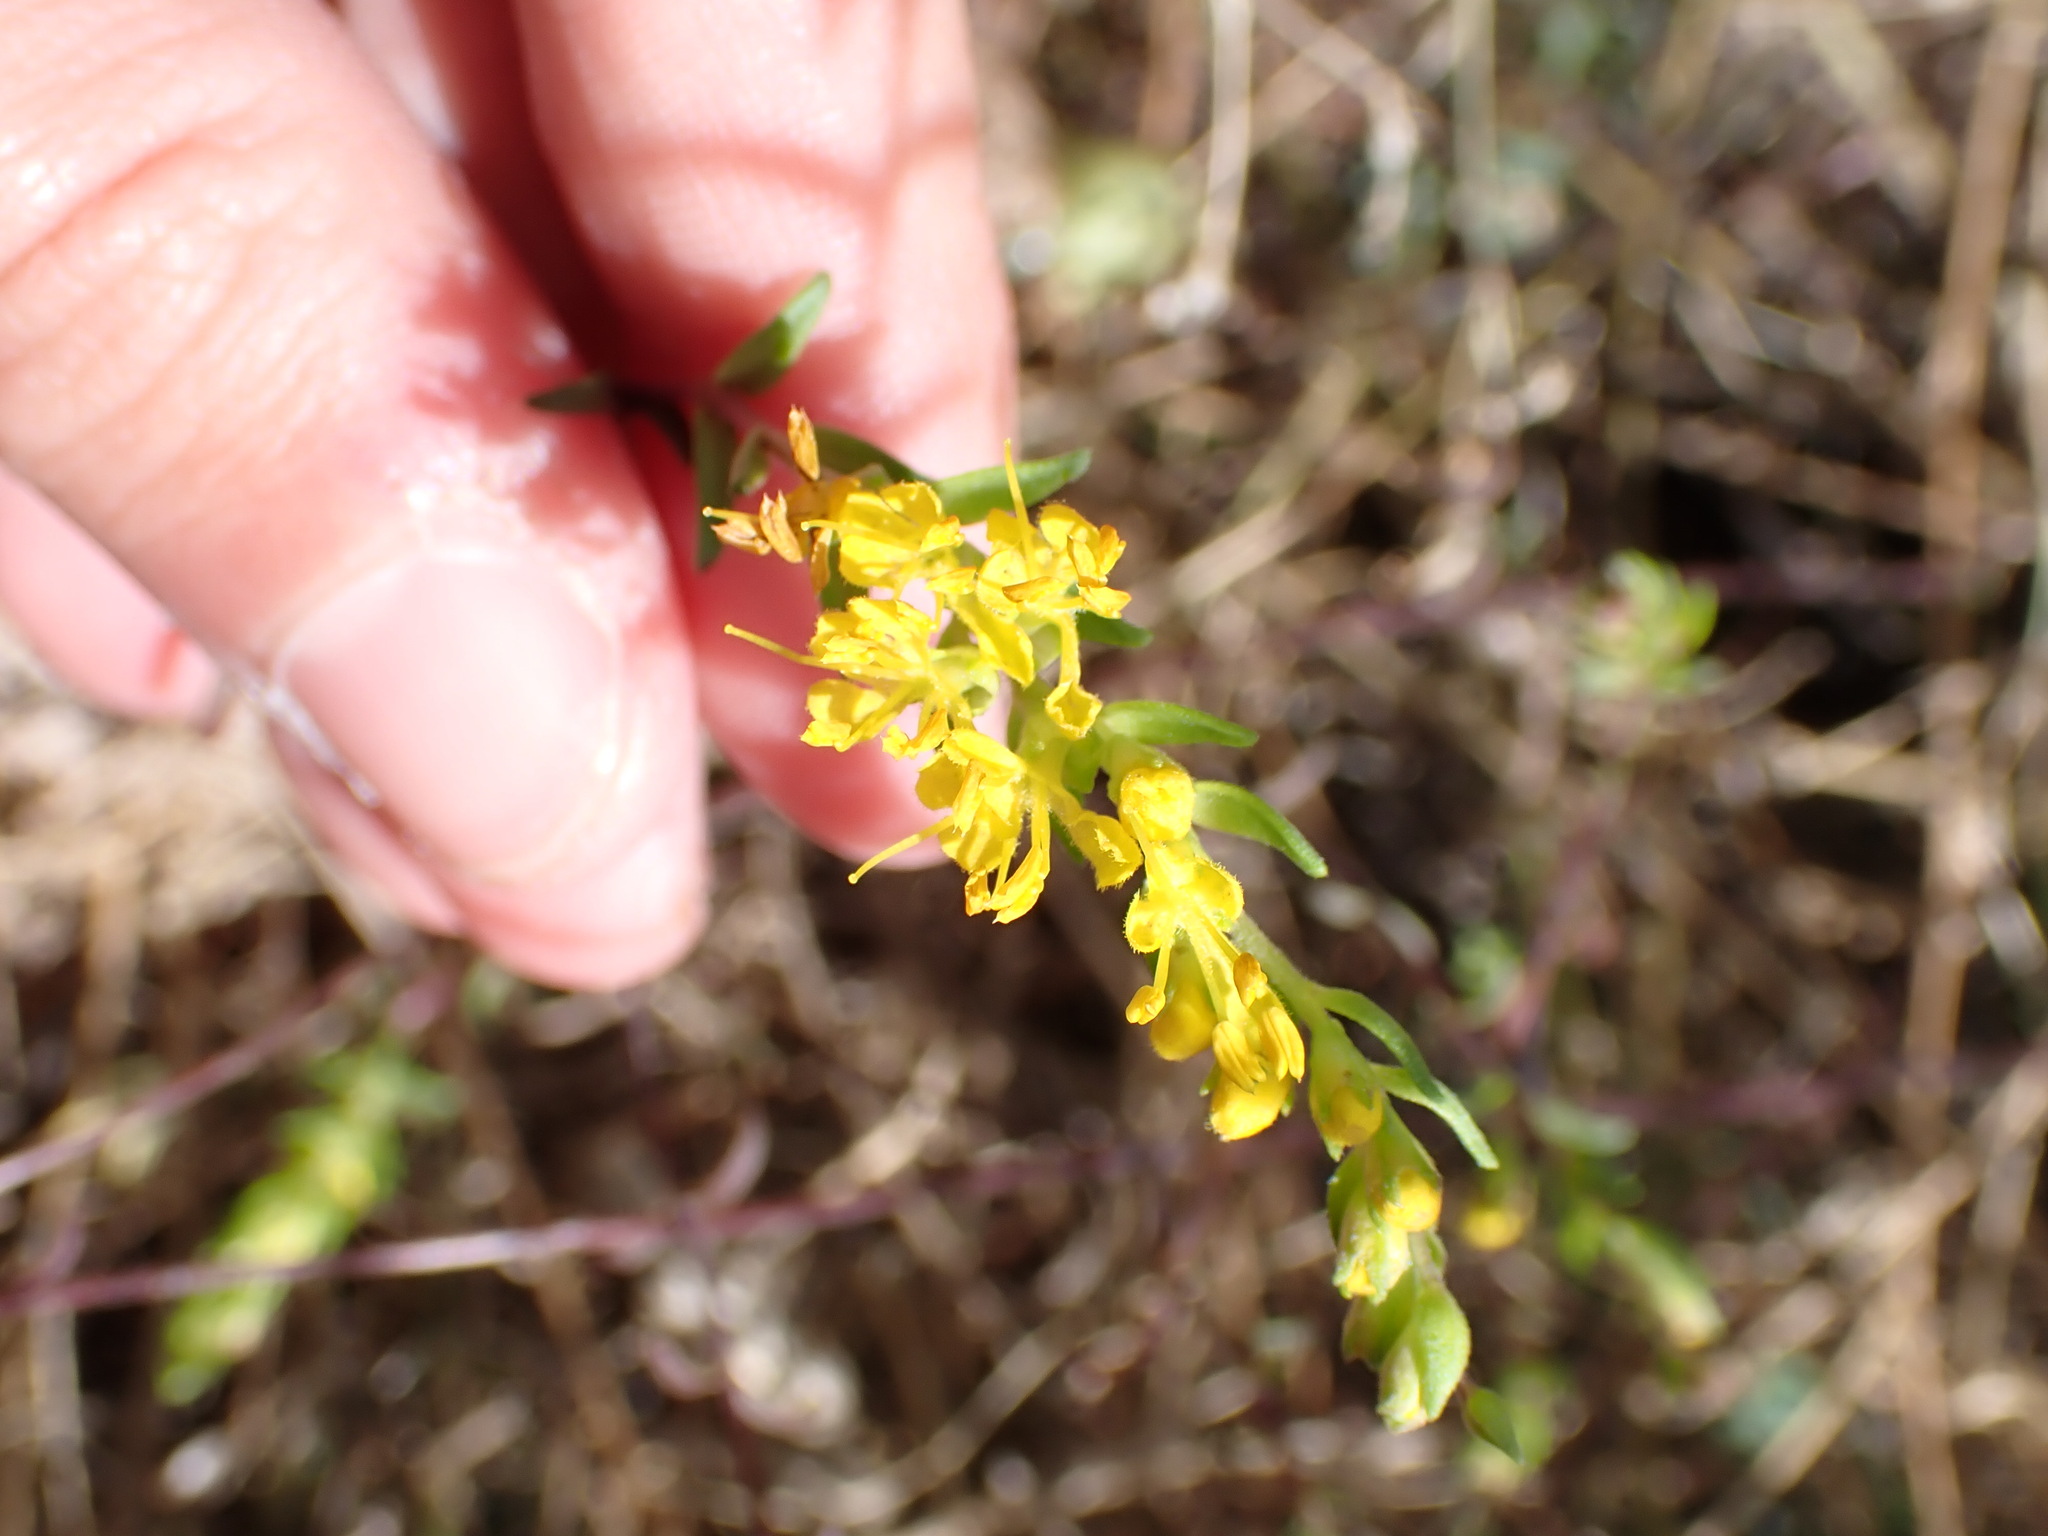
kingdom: Plantae
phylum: Tracheophyta
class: Magnoliopsida
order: Lamiales
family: Orobanchaceae
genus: Odontites
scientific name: Odontites luteus
